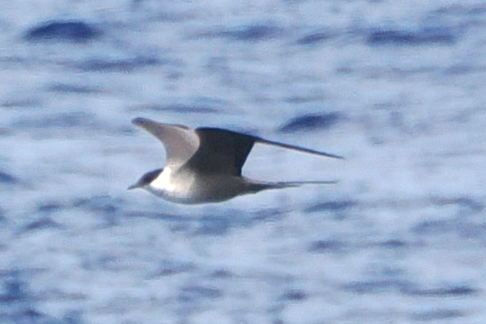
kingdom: Animalia
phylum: Chordata
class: Aves
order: Charadriiformes
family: Stercorariidae
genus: Stercorarius
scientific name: Stercorarius longicaudus
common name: Long-tailed jaeger
